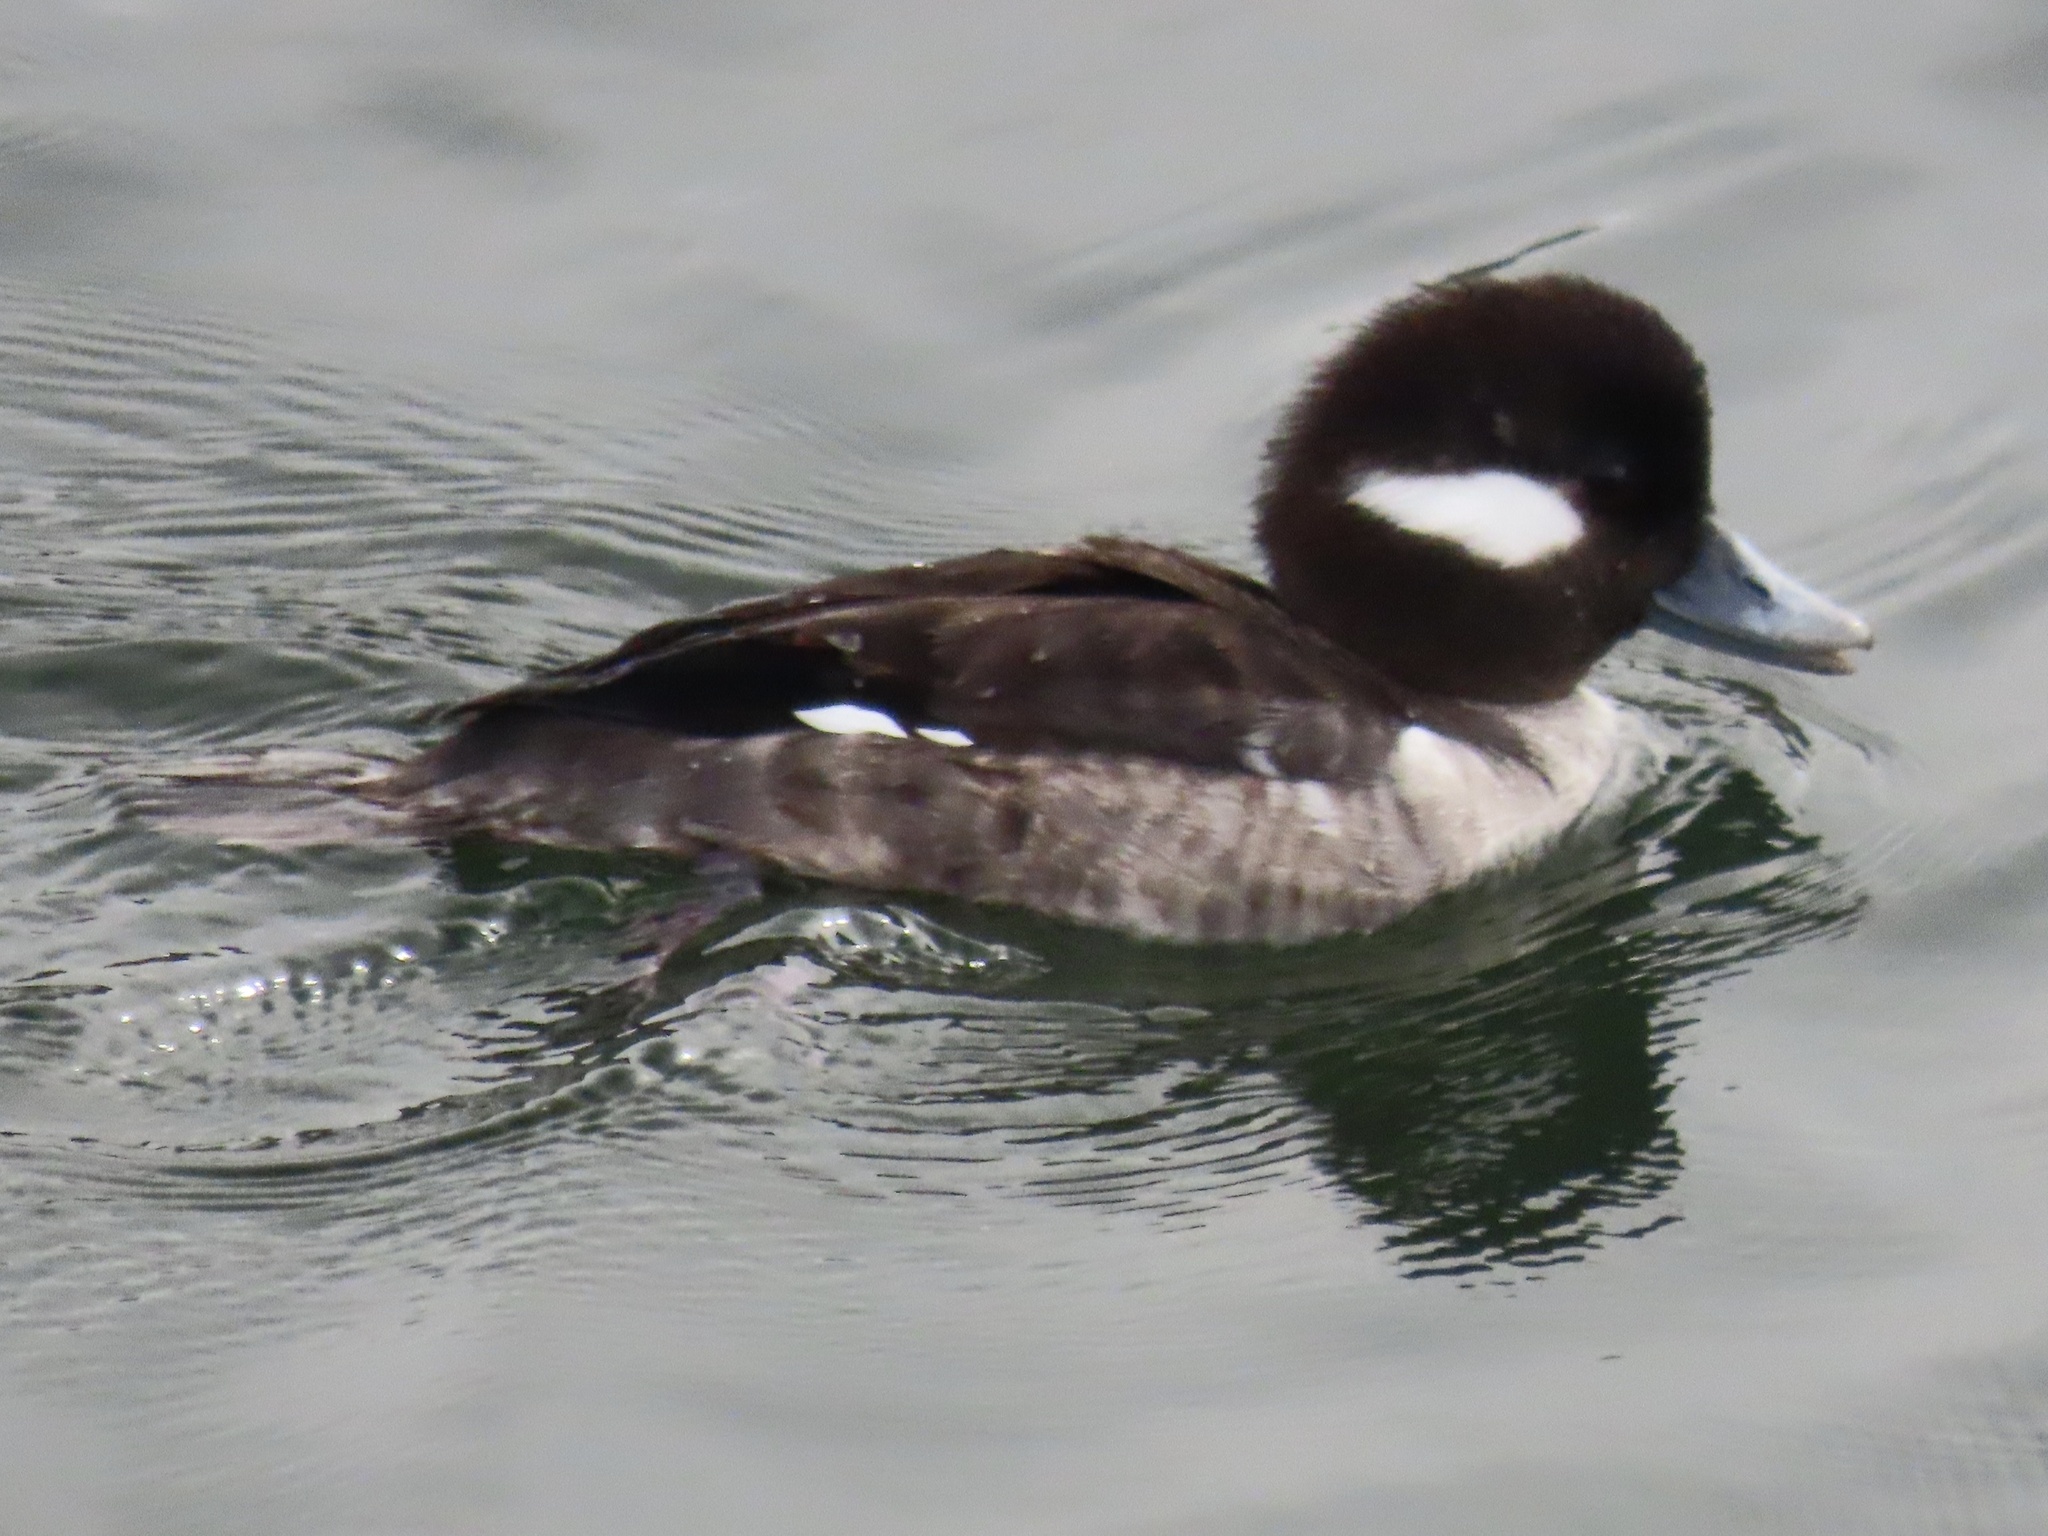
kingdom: Animalia
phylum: Chordata
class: Aves
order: Anseriformes
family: Anatidae
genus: Bucephala
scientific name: Bucephala albeola
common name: Bufflehead
